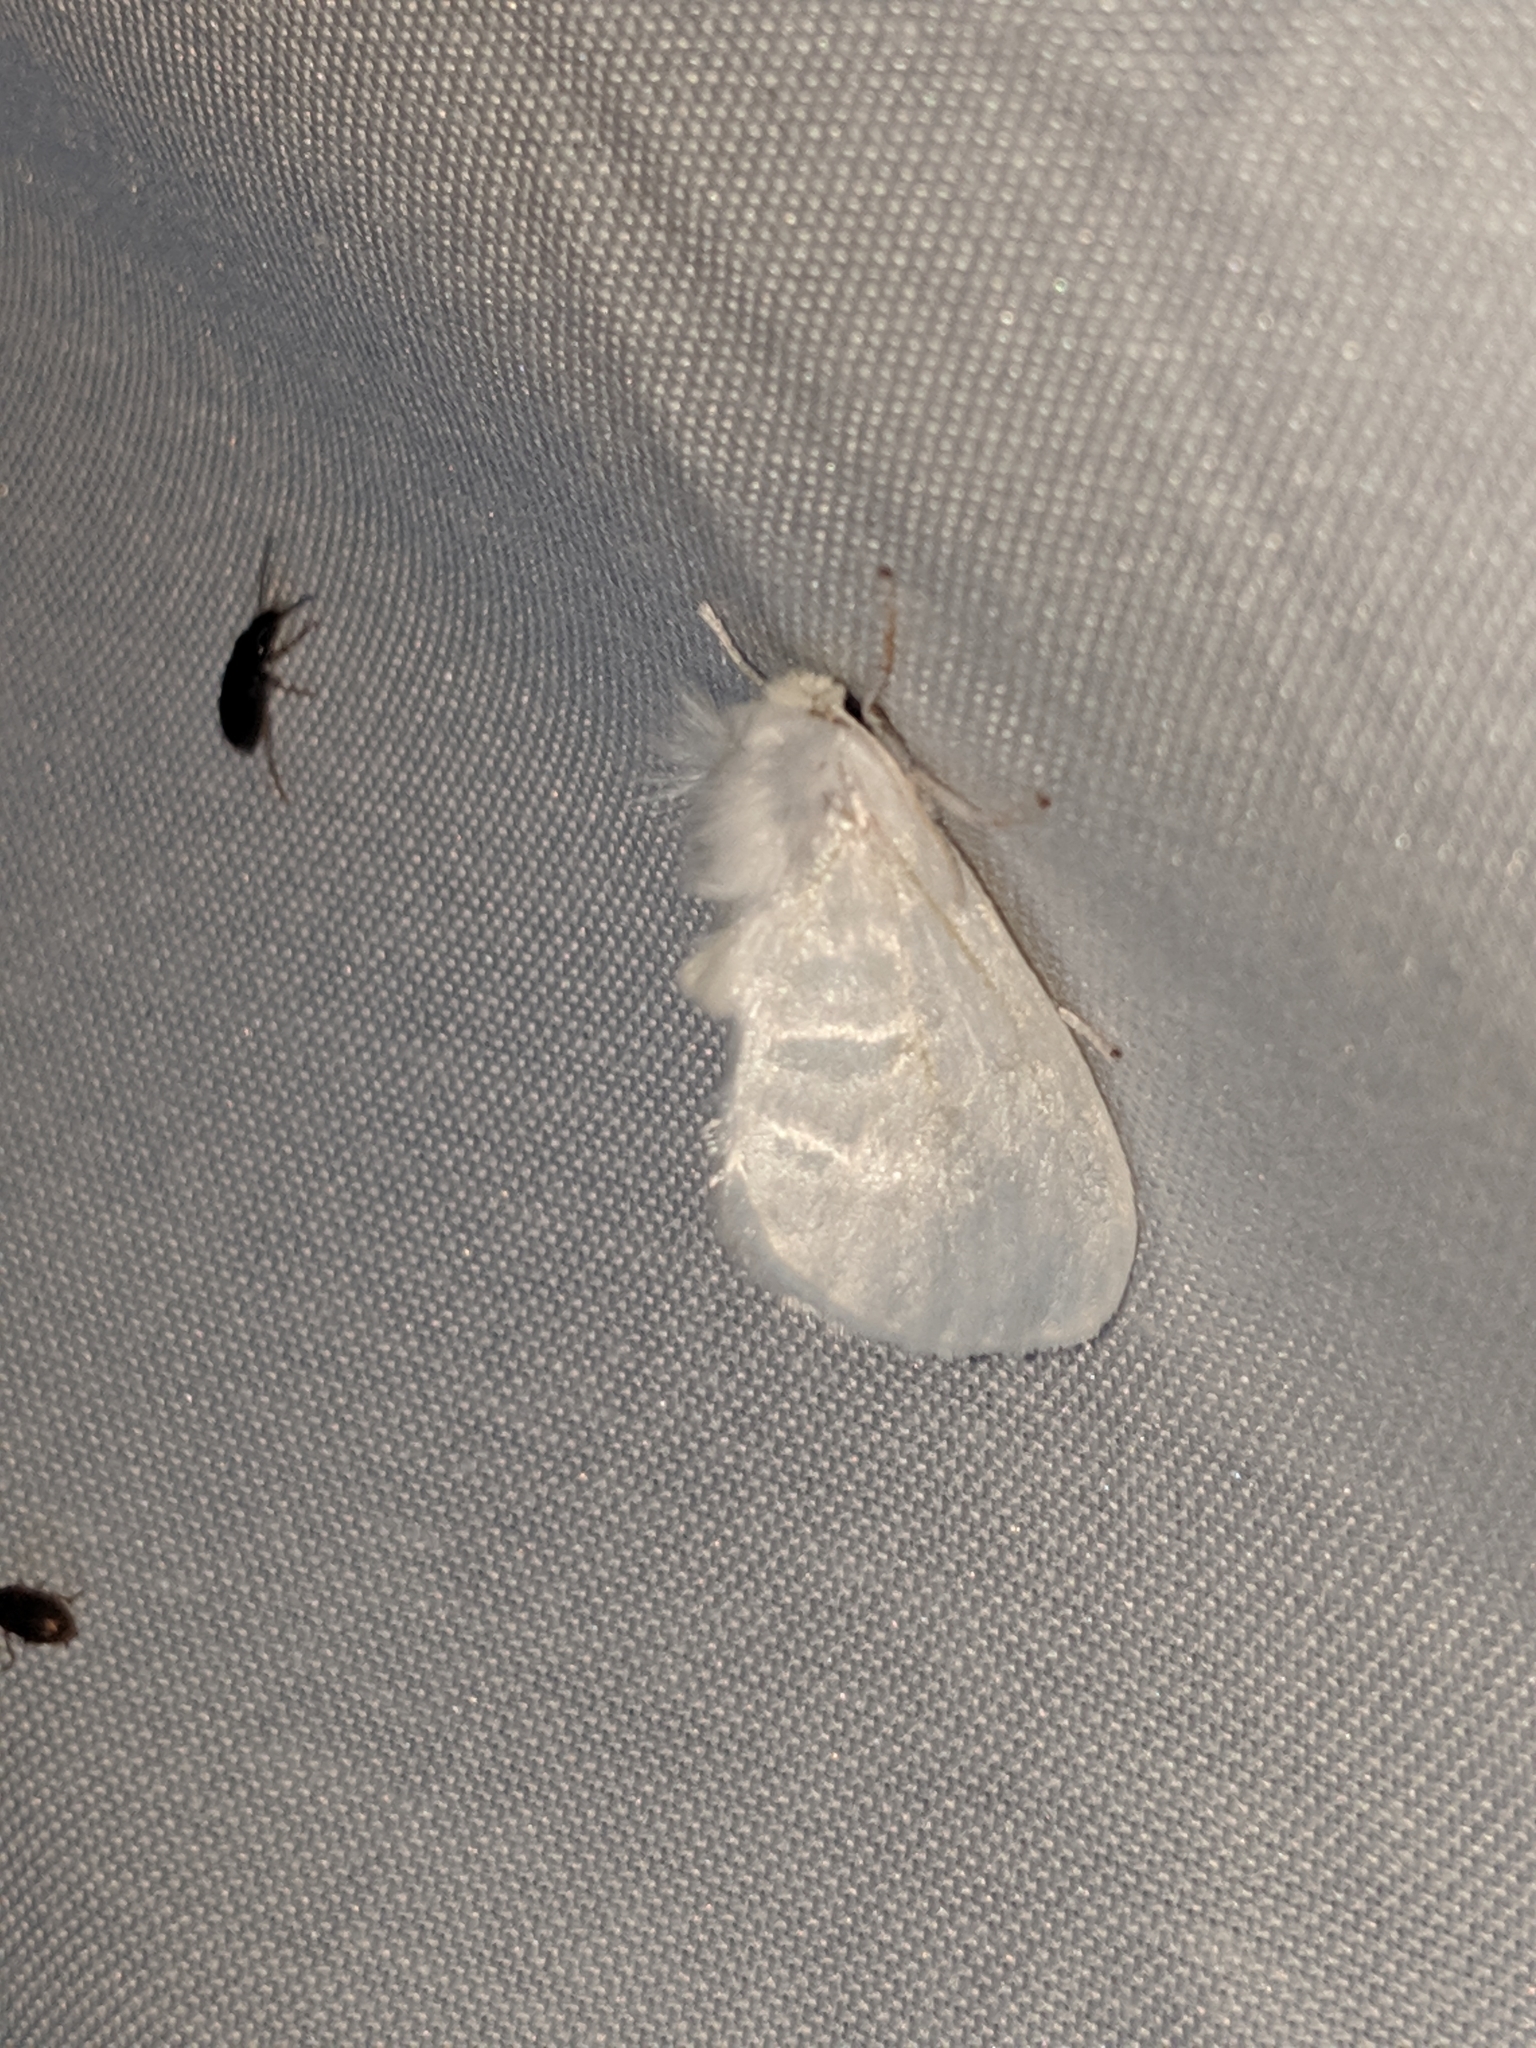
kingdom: Animalia
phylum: Arthropoda
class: Insecta
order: Lepidoptera
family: Megalopygidae
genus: Norape
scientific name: Norape cretata
